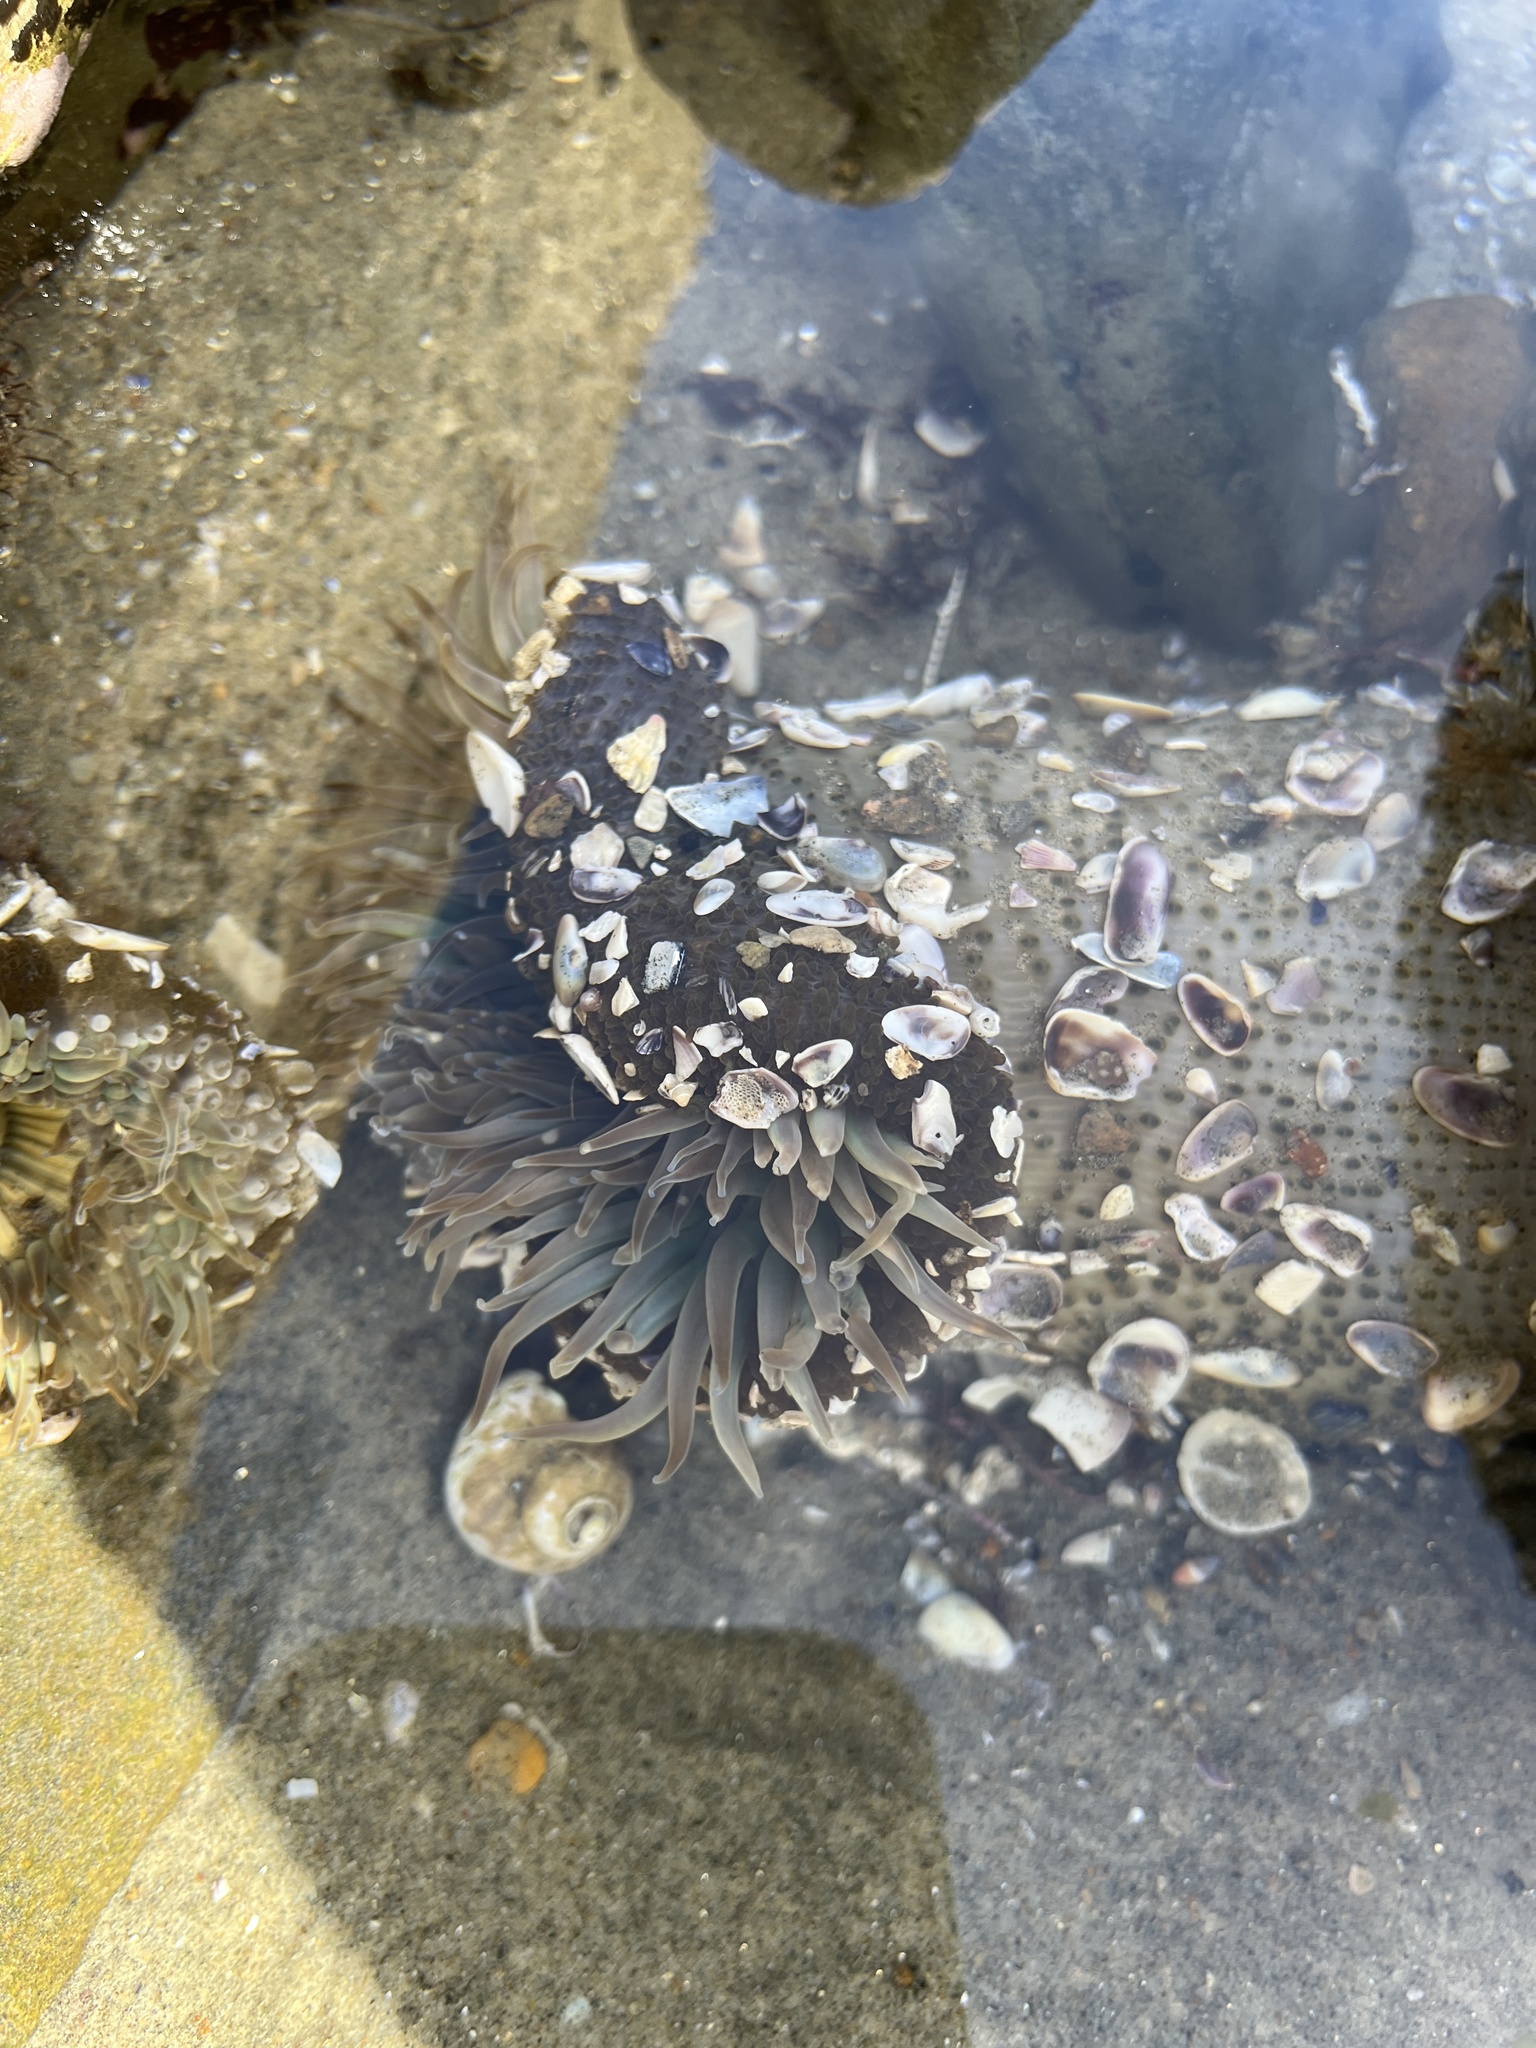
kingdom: Animalia
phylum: Cnidaria
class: Anthozoa
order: Actiniaria
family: Actiniidae
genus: Anthopleura
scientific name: Anthopleura sola
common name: Sun anemone
